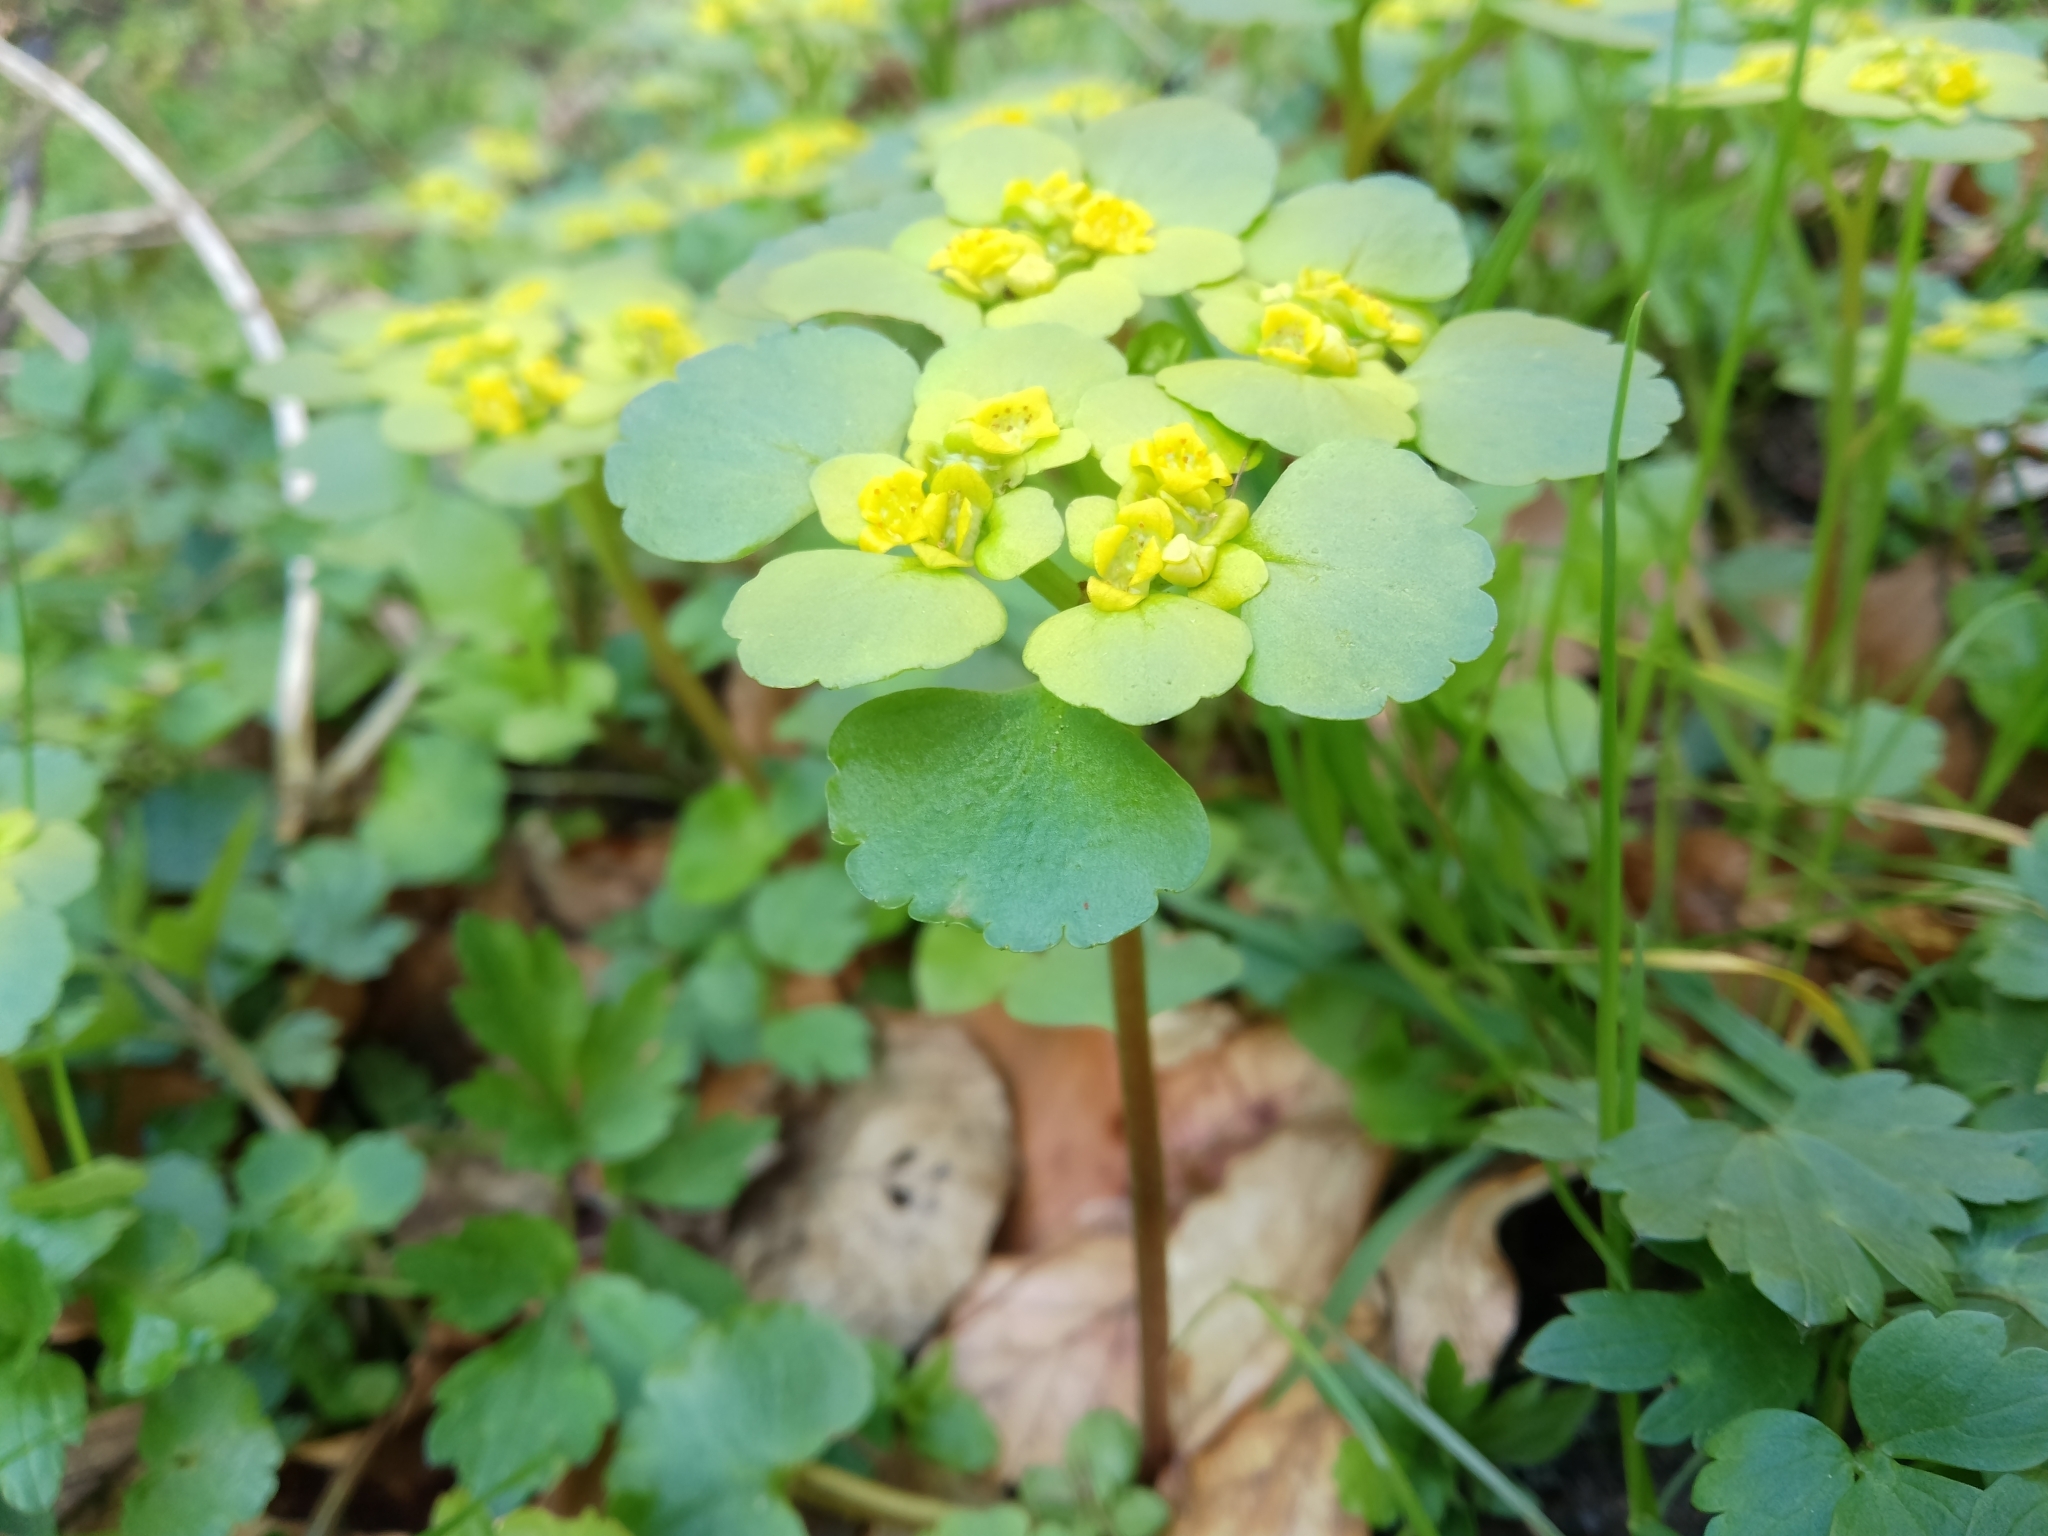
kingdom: Plantae
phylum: Tracheophyta
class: Magnoliopsida
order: Saxifragales
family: Saxifragaceae
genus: Chrysosplenium
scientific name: Chrysosplenium alternifolium
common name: Alternate-leaved golden-saxifrage
